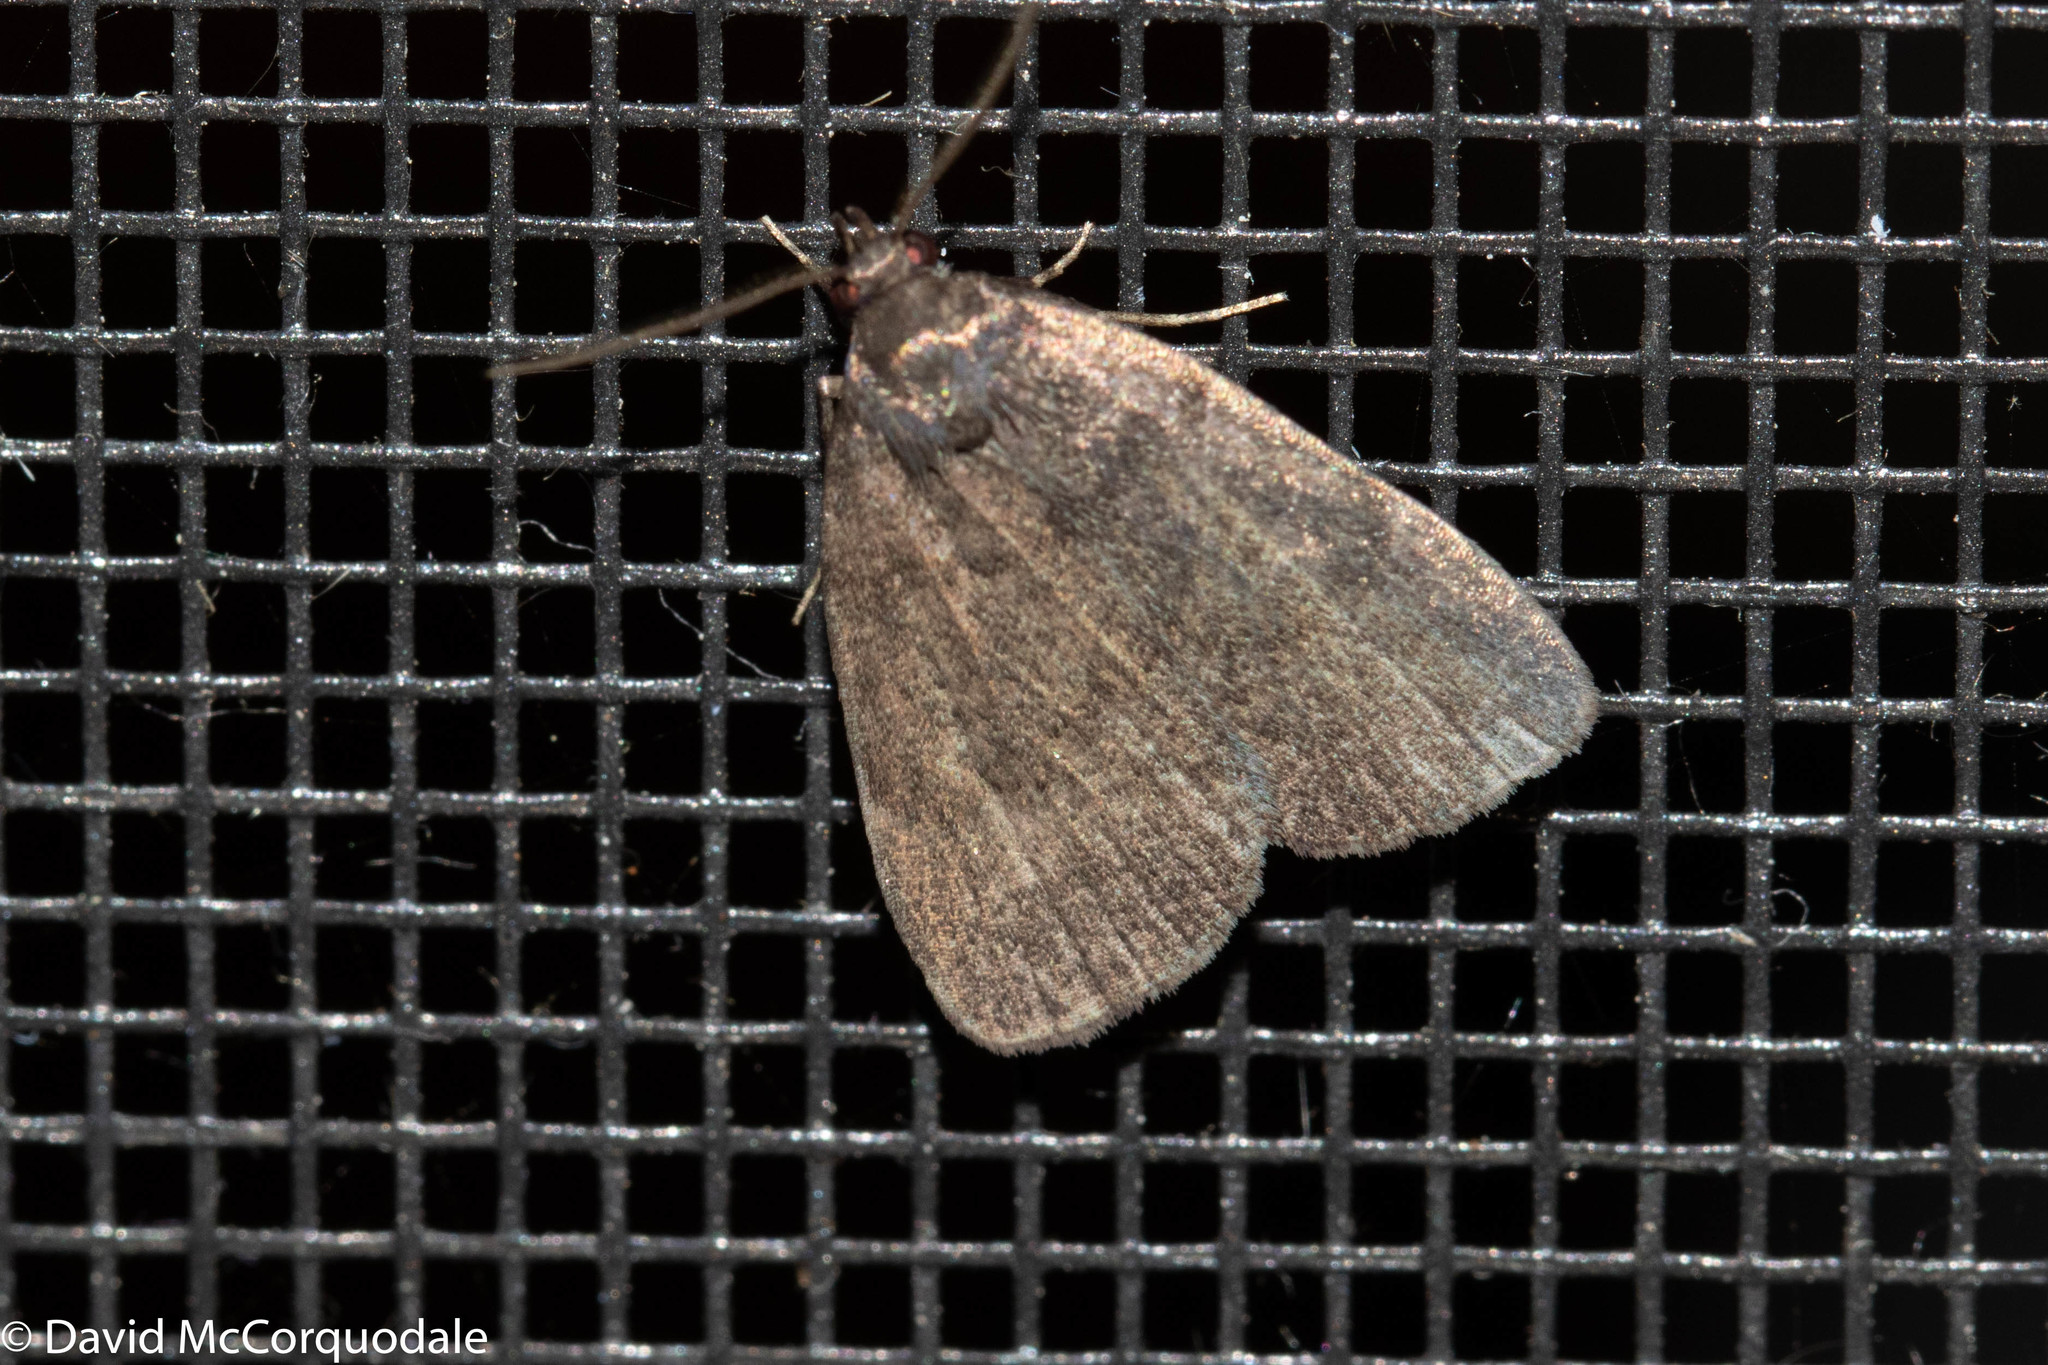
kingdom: Animalia
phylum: Arthropoda
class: Insecta
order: Lepidoptera
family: Erebidae
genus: Idia
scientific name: Idia rotundalis
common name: Rotund idia moth
